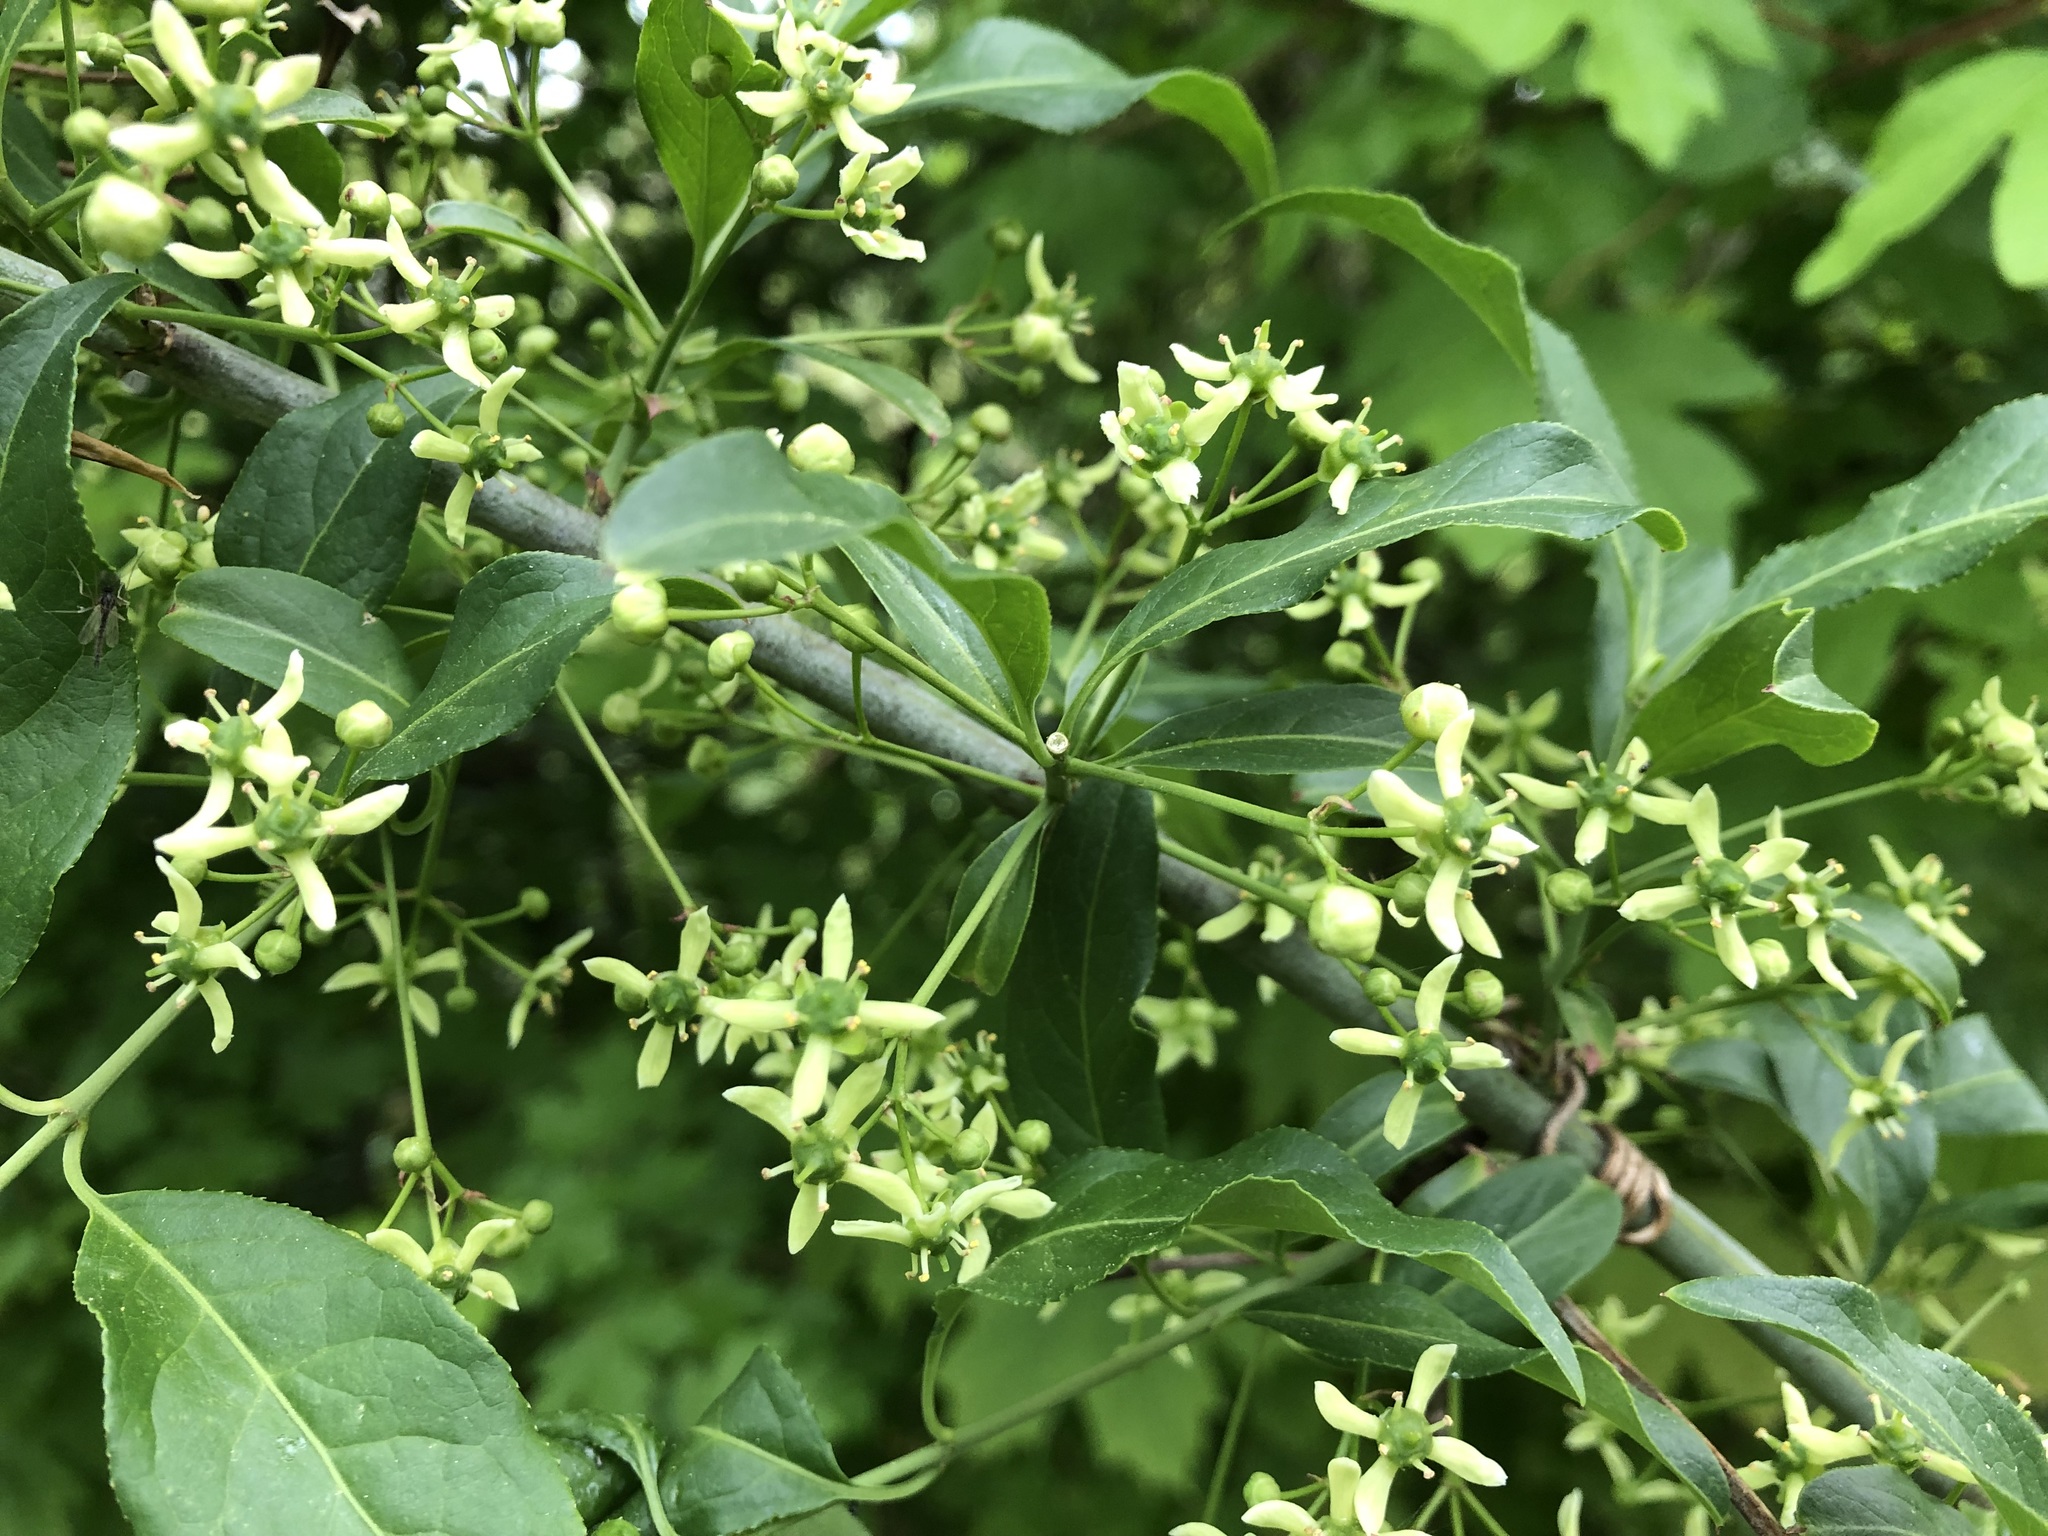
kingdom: Plantae
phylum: Tracheophyta
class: Magnoliopsida
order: Celastrales
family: Celastraceae
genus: Euonymus
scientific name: Euonymus europaeus
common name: Spindle
